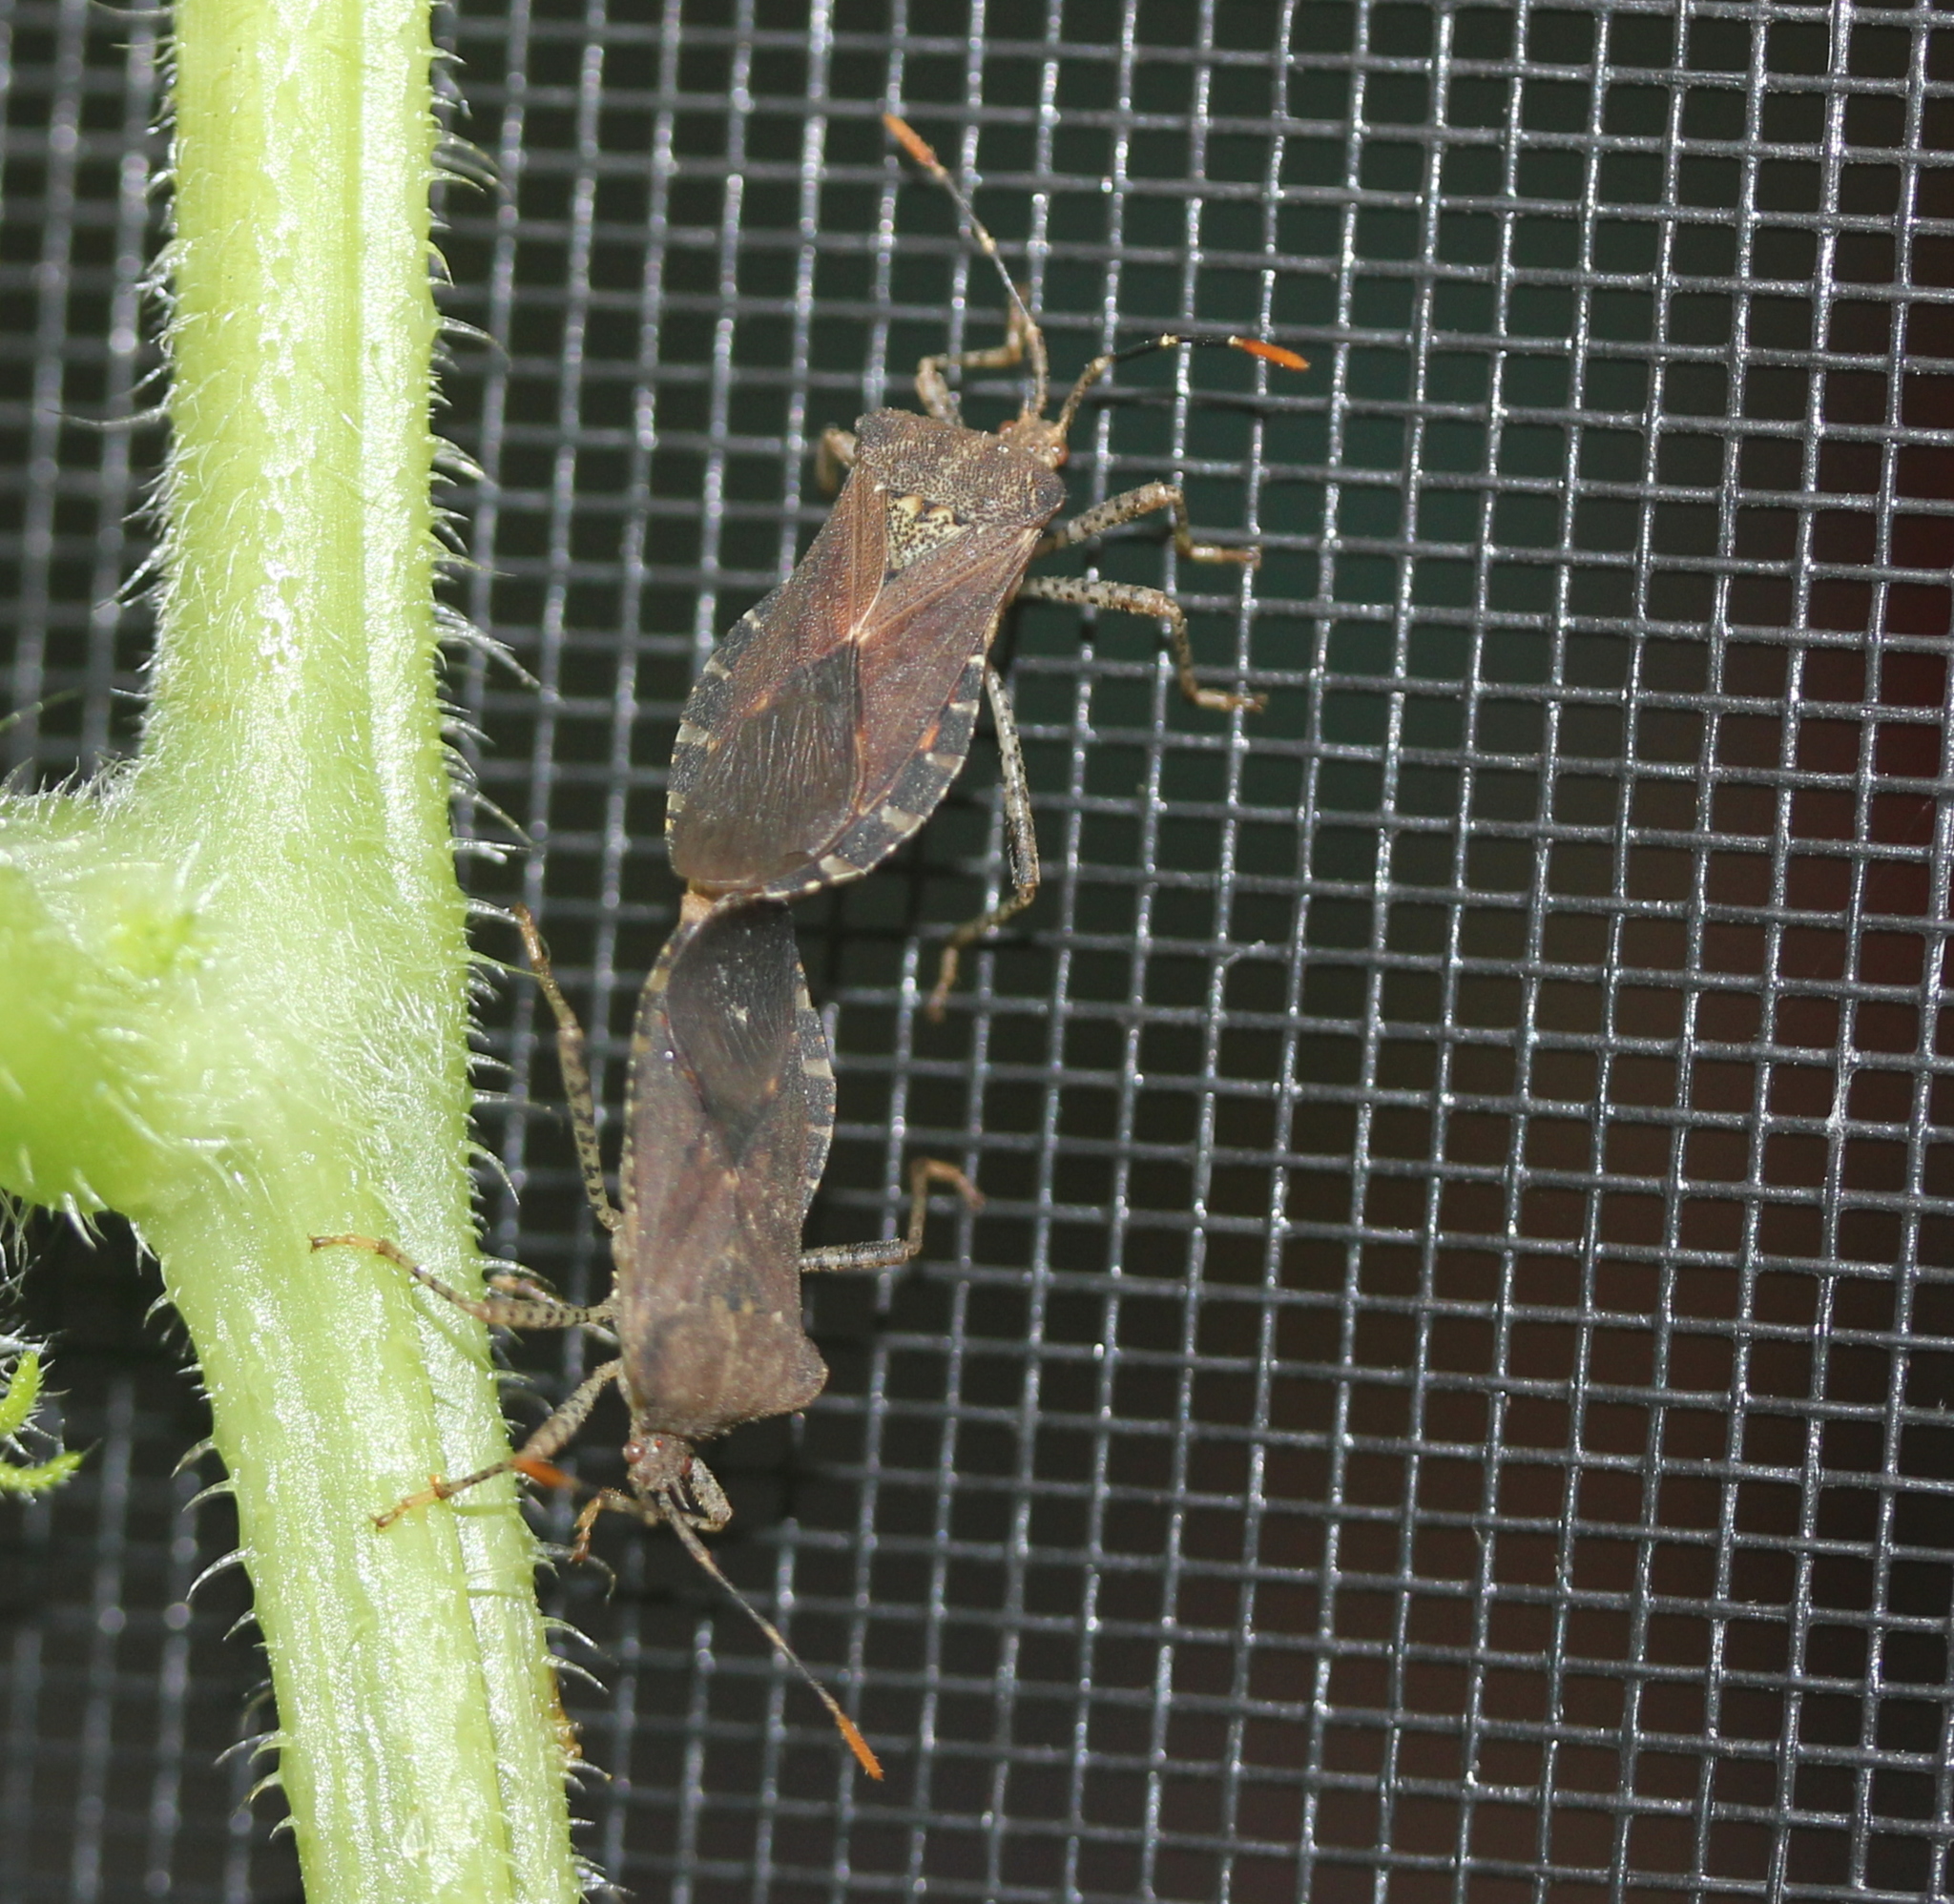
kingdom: Animalia
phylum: Arthropoda
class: Insecta
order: Hemiptera
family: Coreidae
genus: Anasa
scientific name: Anasa armigera
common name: Horned squash bug
